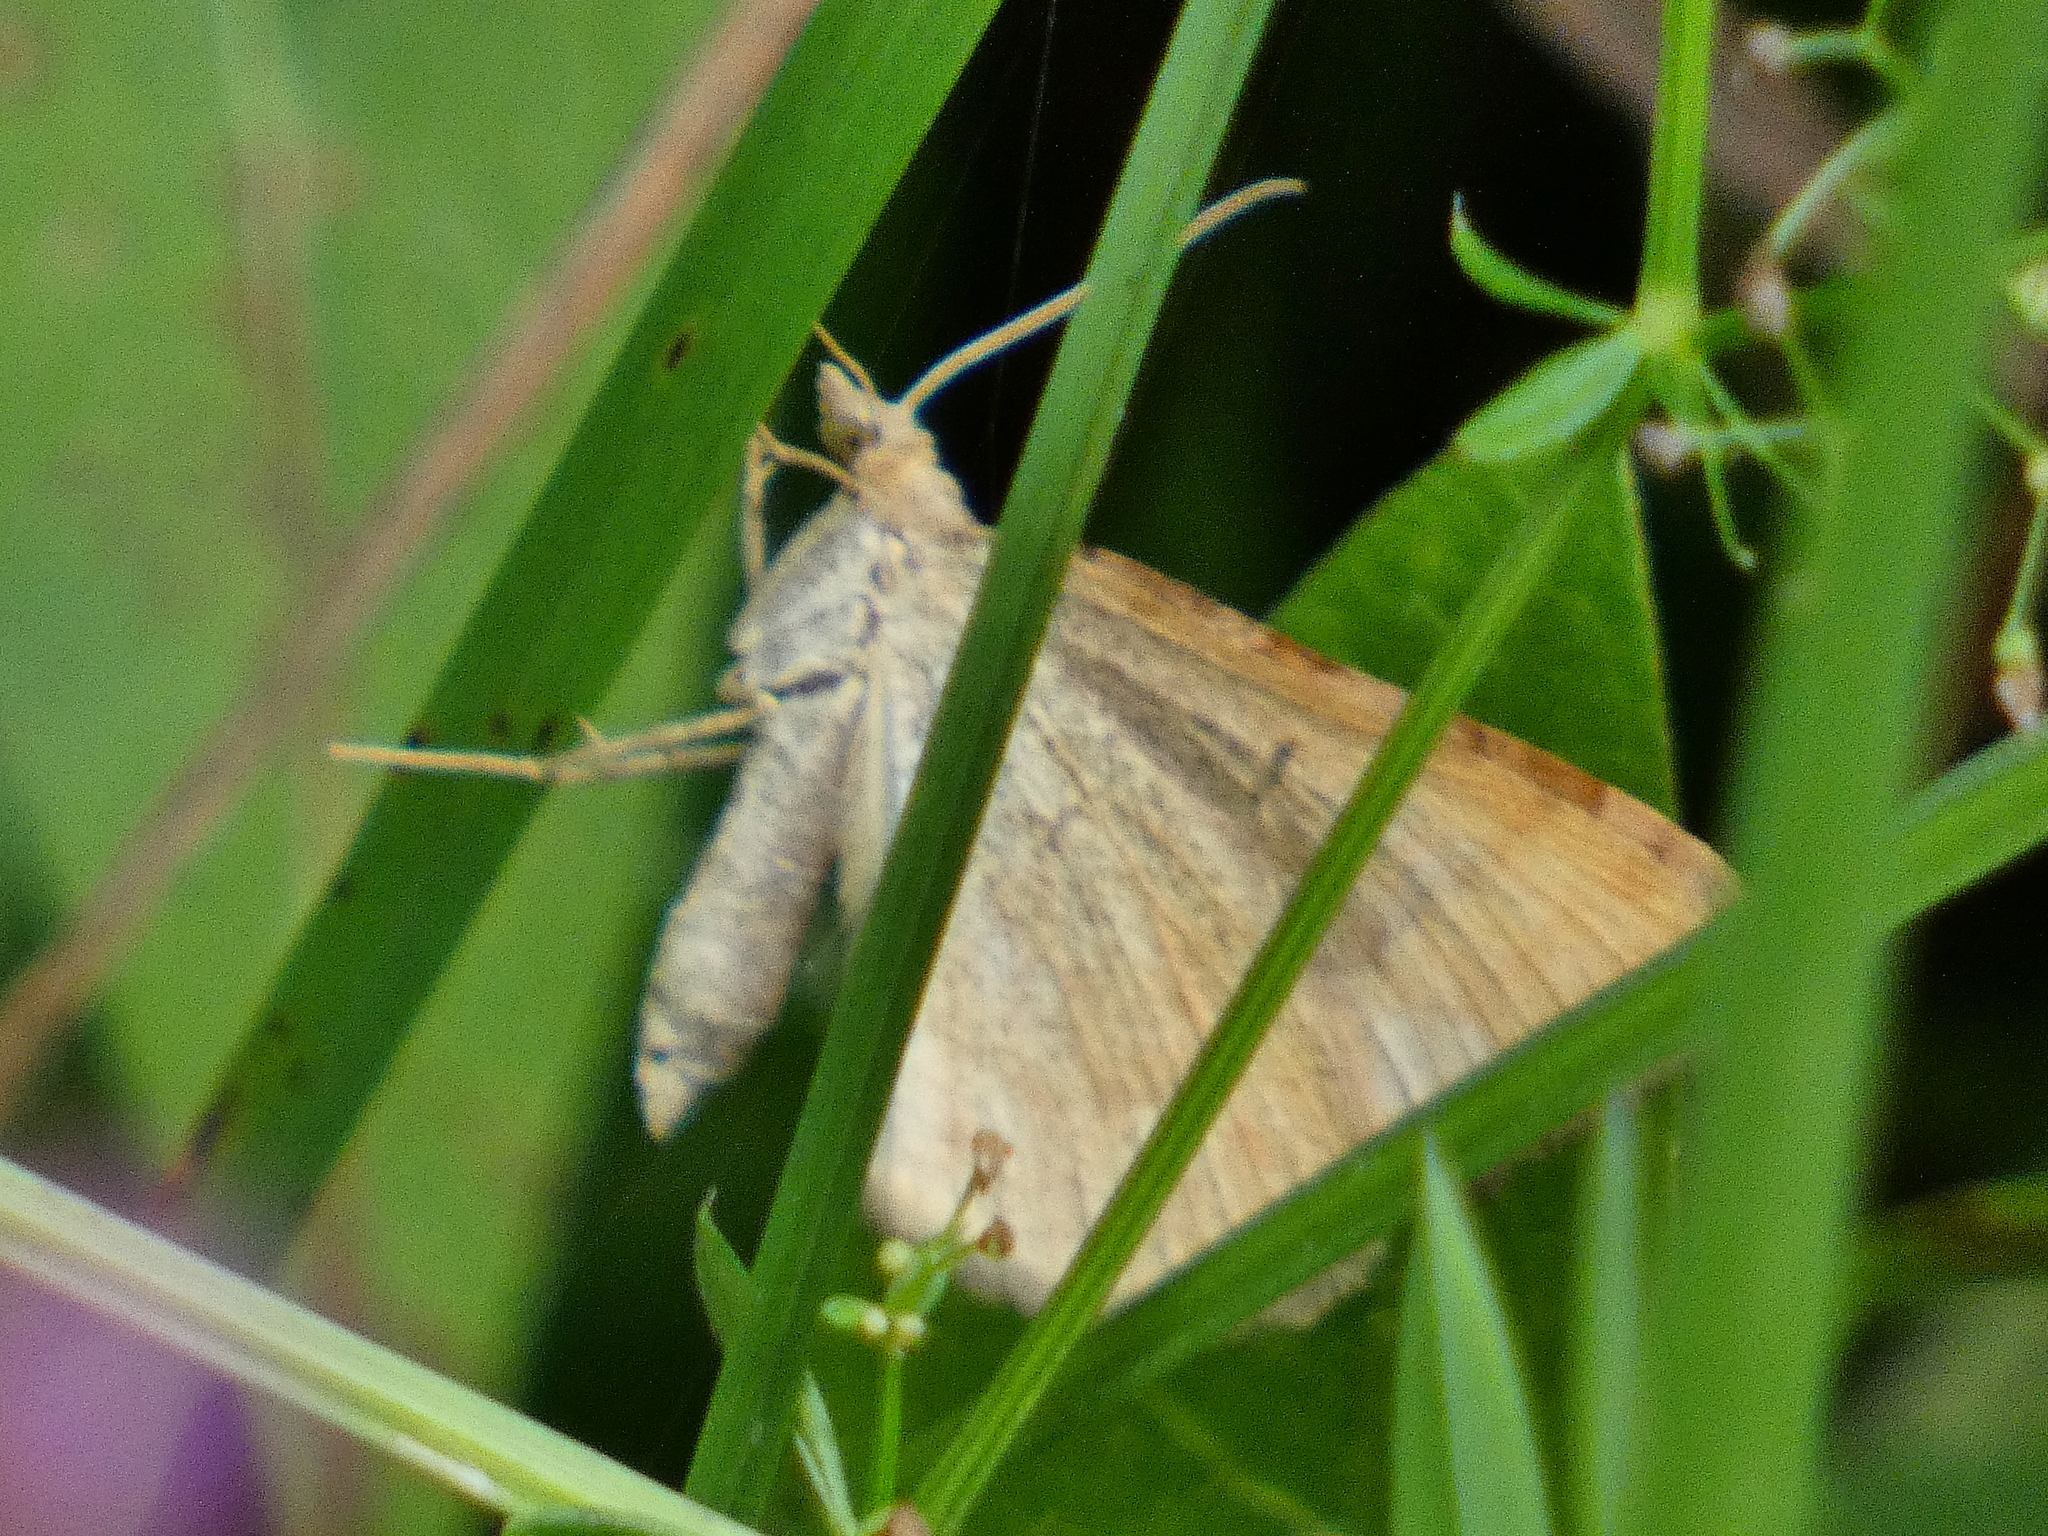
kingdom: Animalia
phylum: Arthropoda
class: Insecta
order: Lepidoptera
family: Geometridae
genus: Scotopteryx
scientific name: Scotopteryx chenopodiata
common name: Shaded broad-bar
